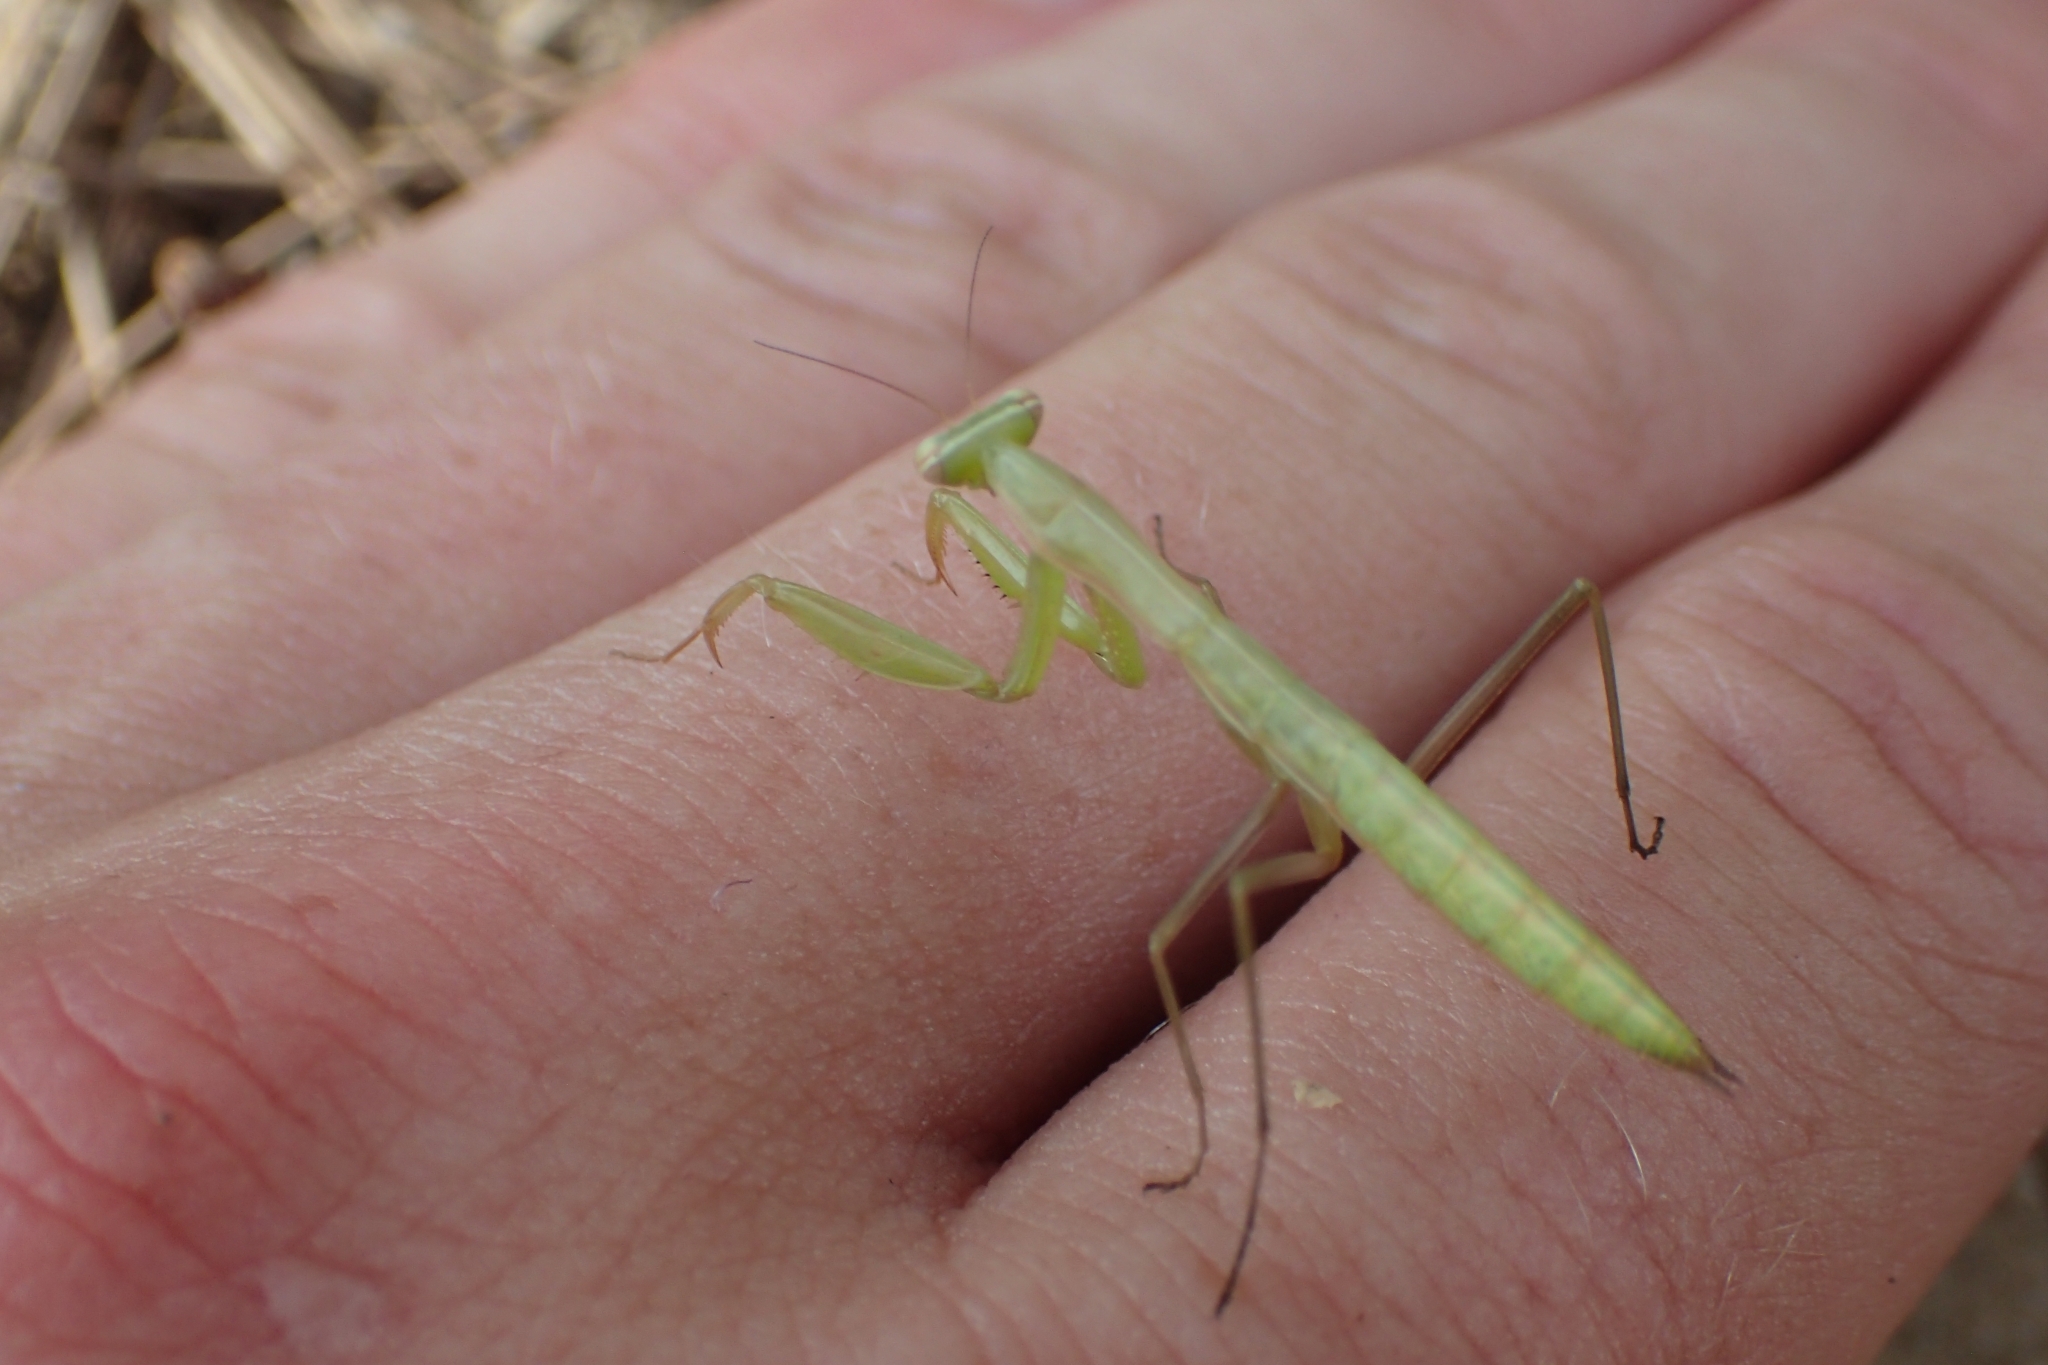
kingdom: Animalia
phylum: Arthropoda
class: Insecta
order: Mantodea
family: Mantidae
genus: Mantis
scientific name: Mantis religiosa
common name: Praying mantis
